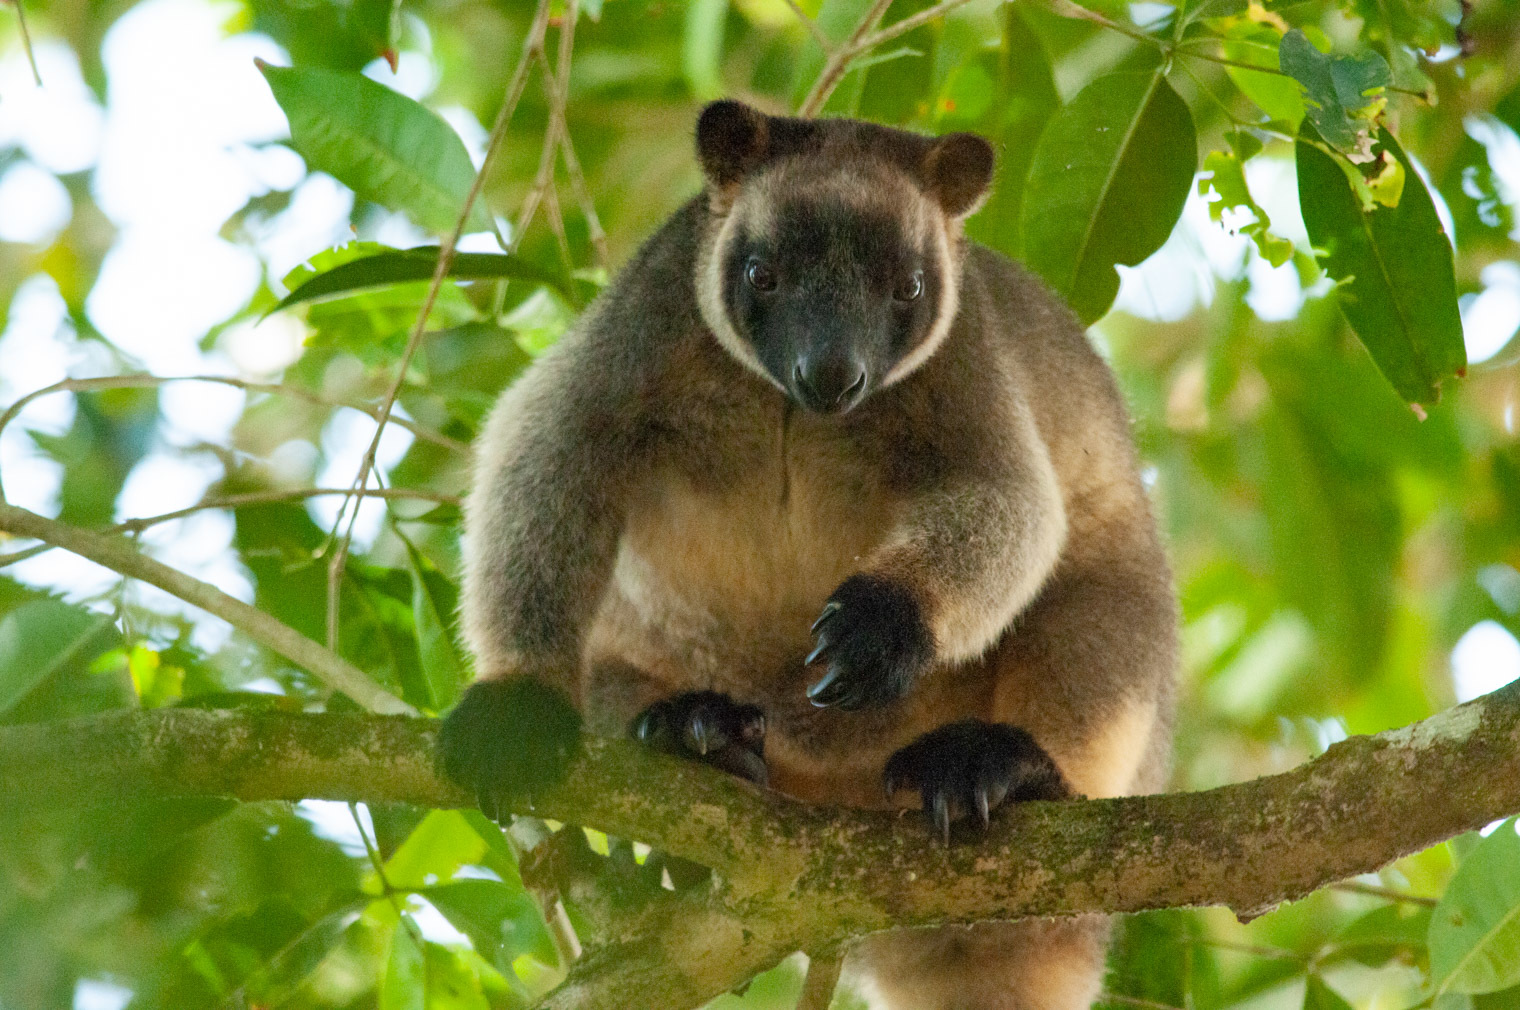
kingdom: Animalia
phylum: Chordata
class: Mammalia
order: Diprotodontia
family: Macropodidae
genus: Dendrolagus
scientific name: Dendrolagus lumholtzi
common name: Lumholtz's tree kangaroo
